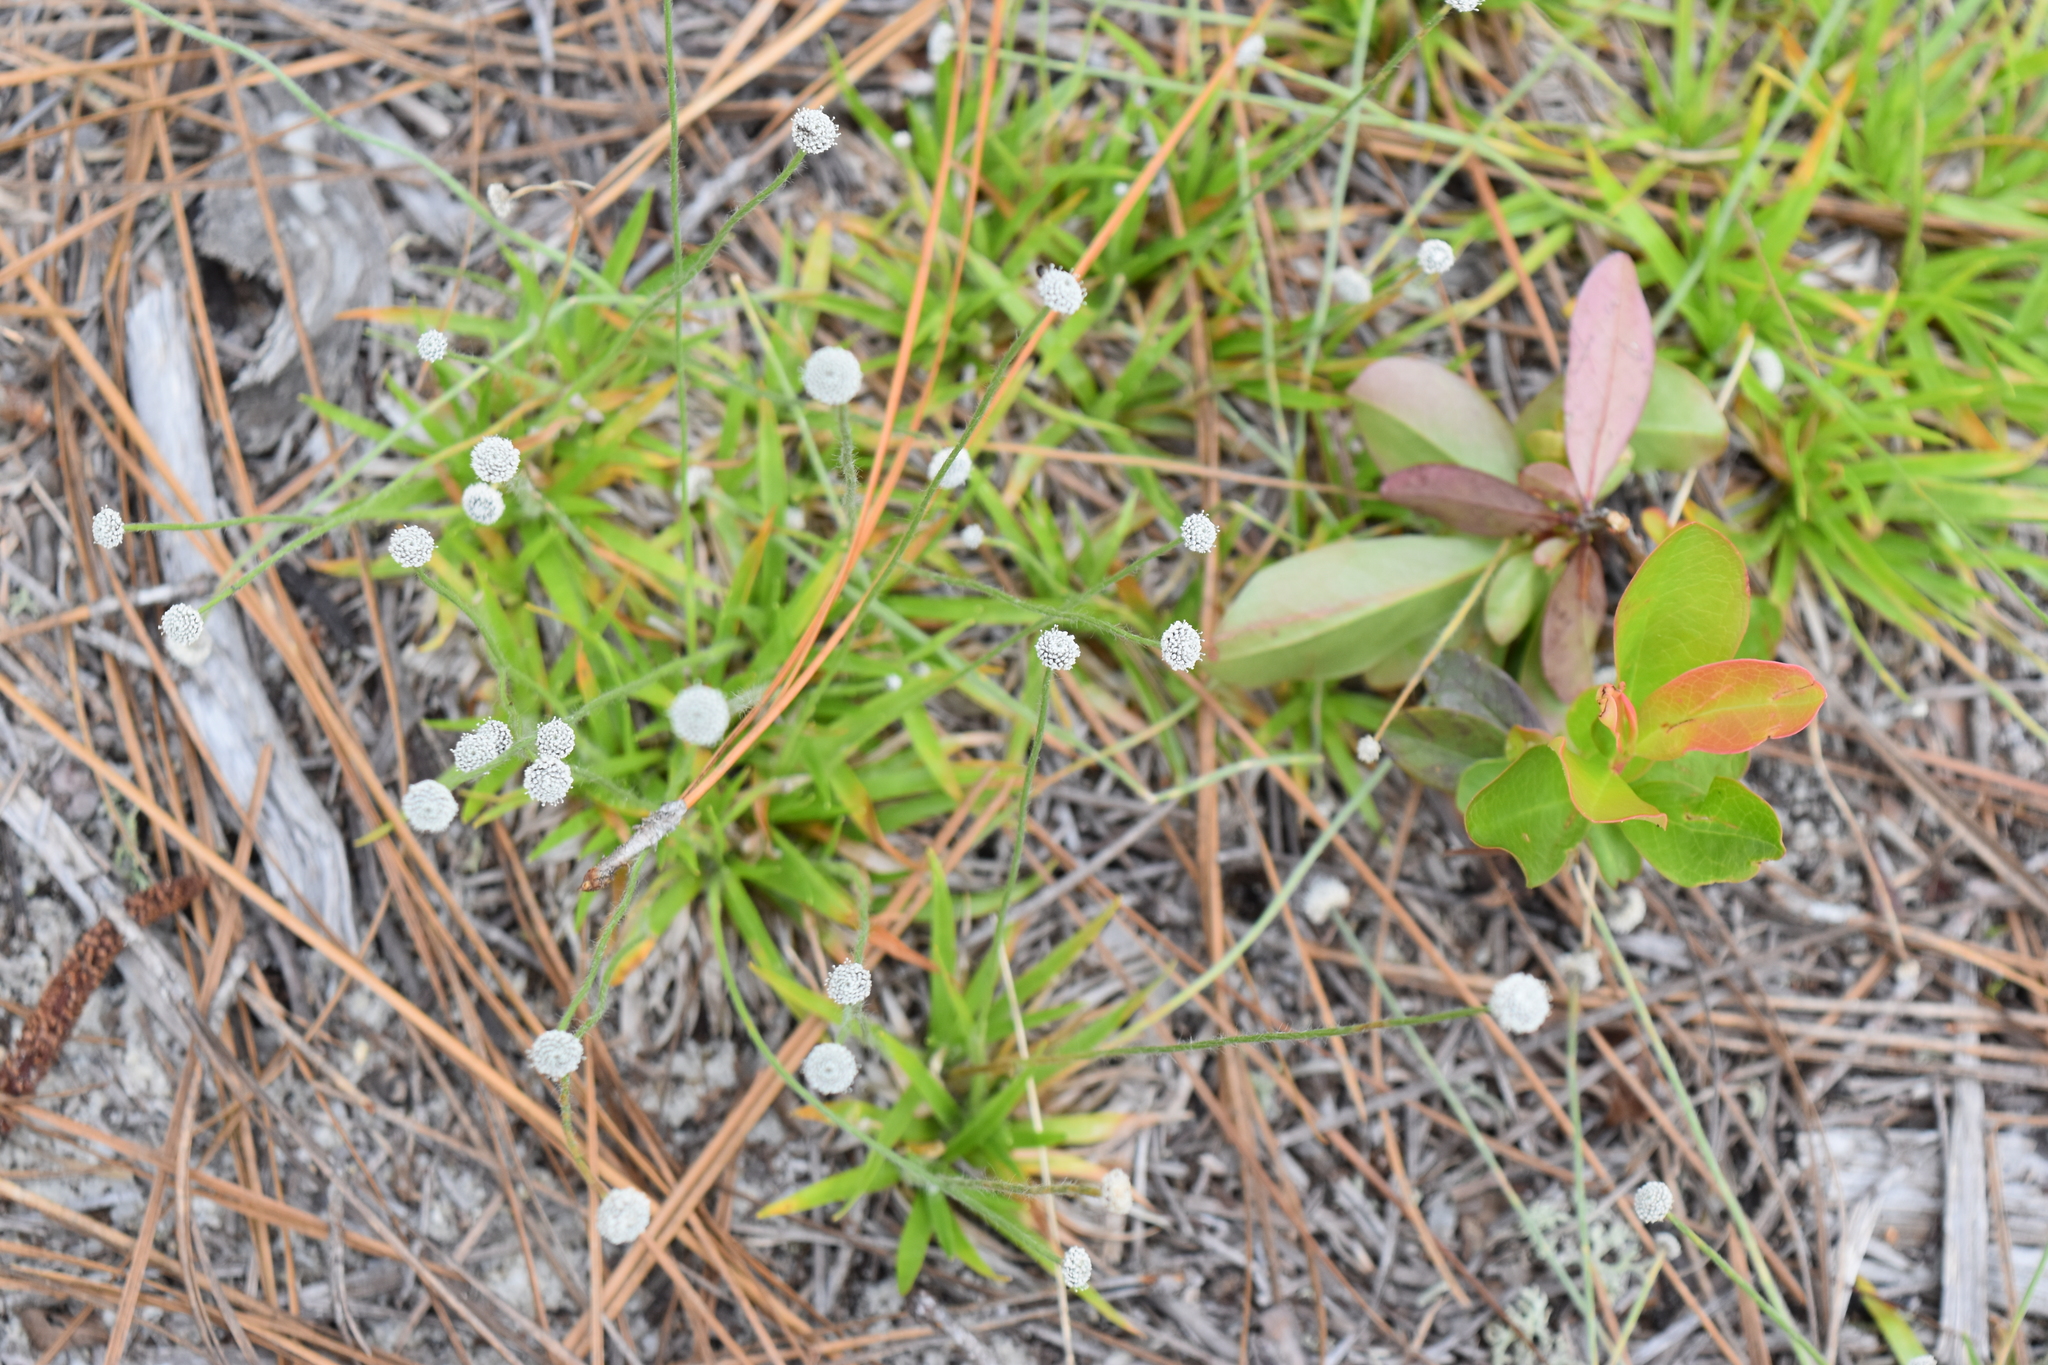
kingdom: Plantae
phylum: Tracheophyta
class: Liliopsida
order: Poales
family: Eriocaulaceae
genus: Paepalanthus
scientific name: Paepalanthus anceps
